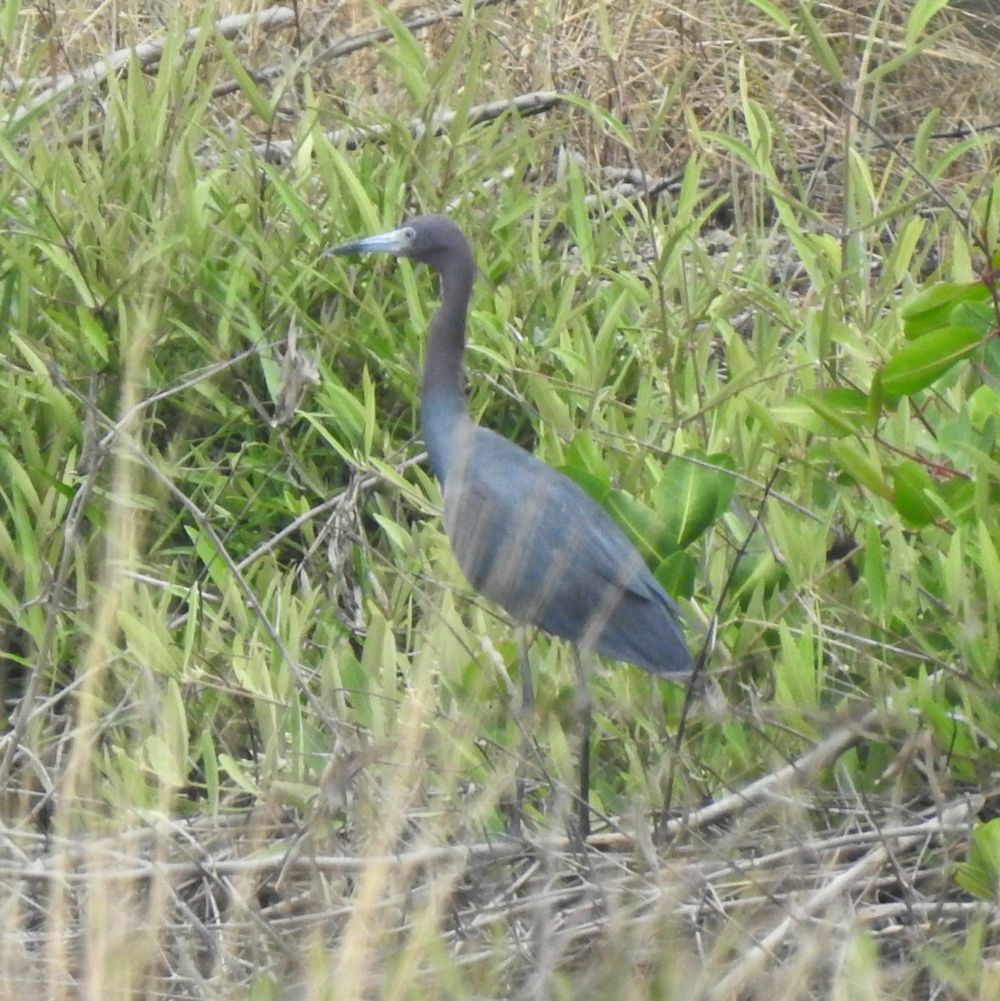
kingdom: Animalia
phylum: Chordata
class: Aves
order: Pelecaniformes
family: Ardeidae
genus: Egretta
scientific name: Egretta caerulea
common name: Little blue heron
